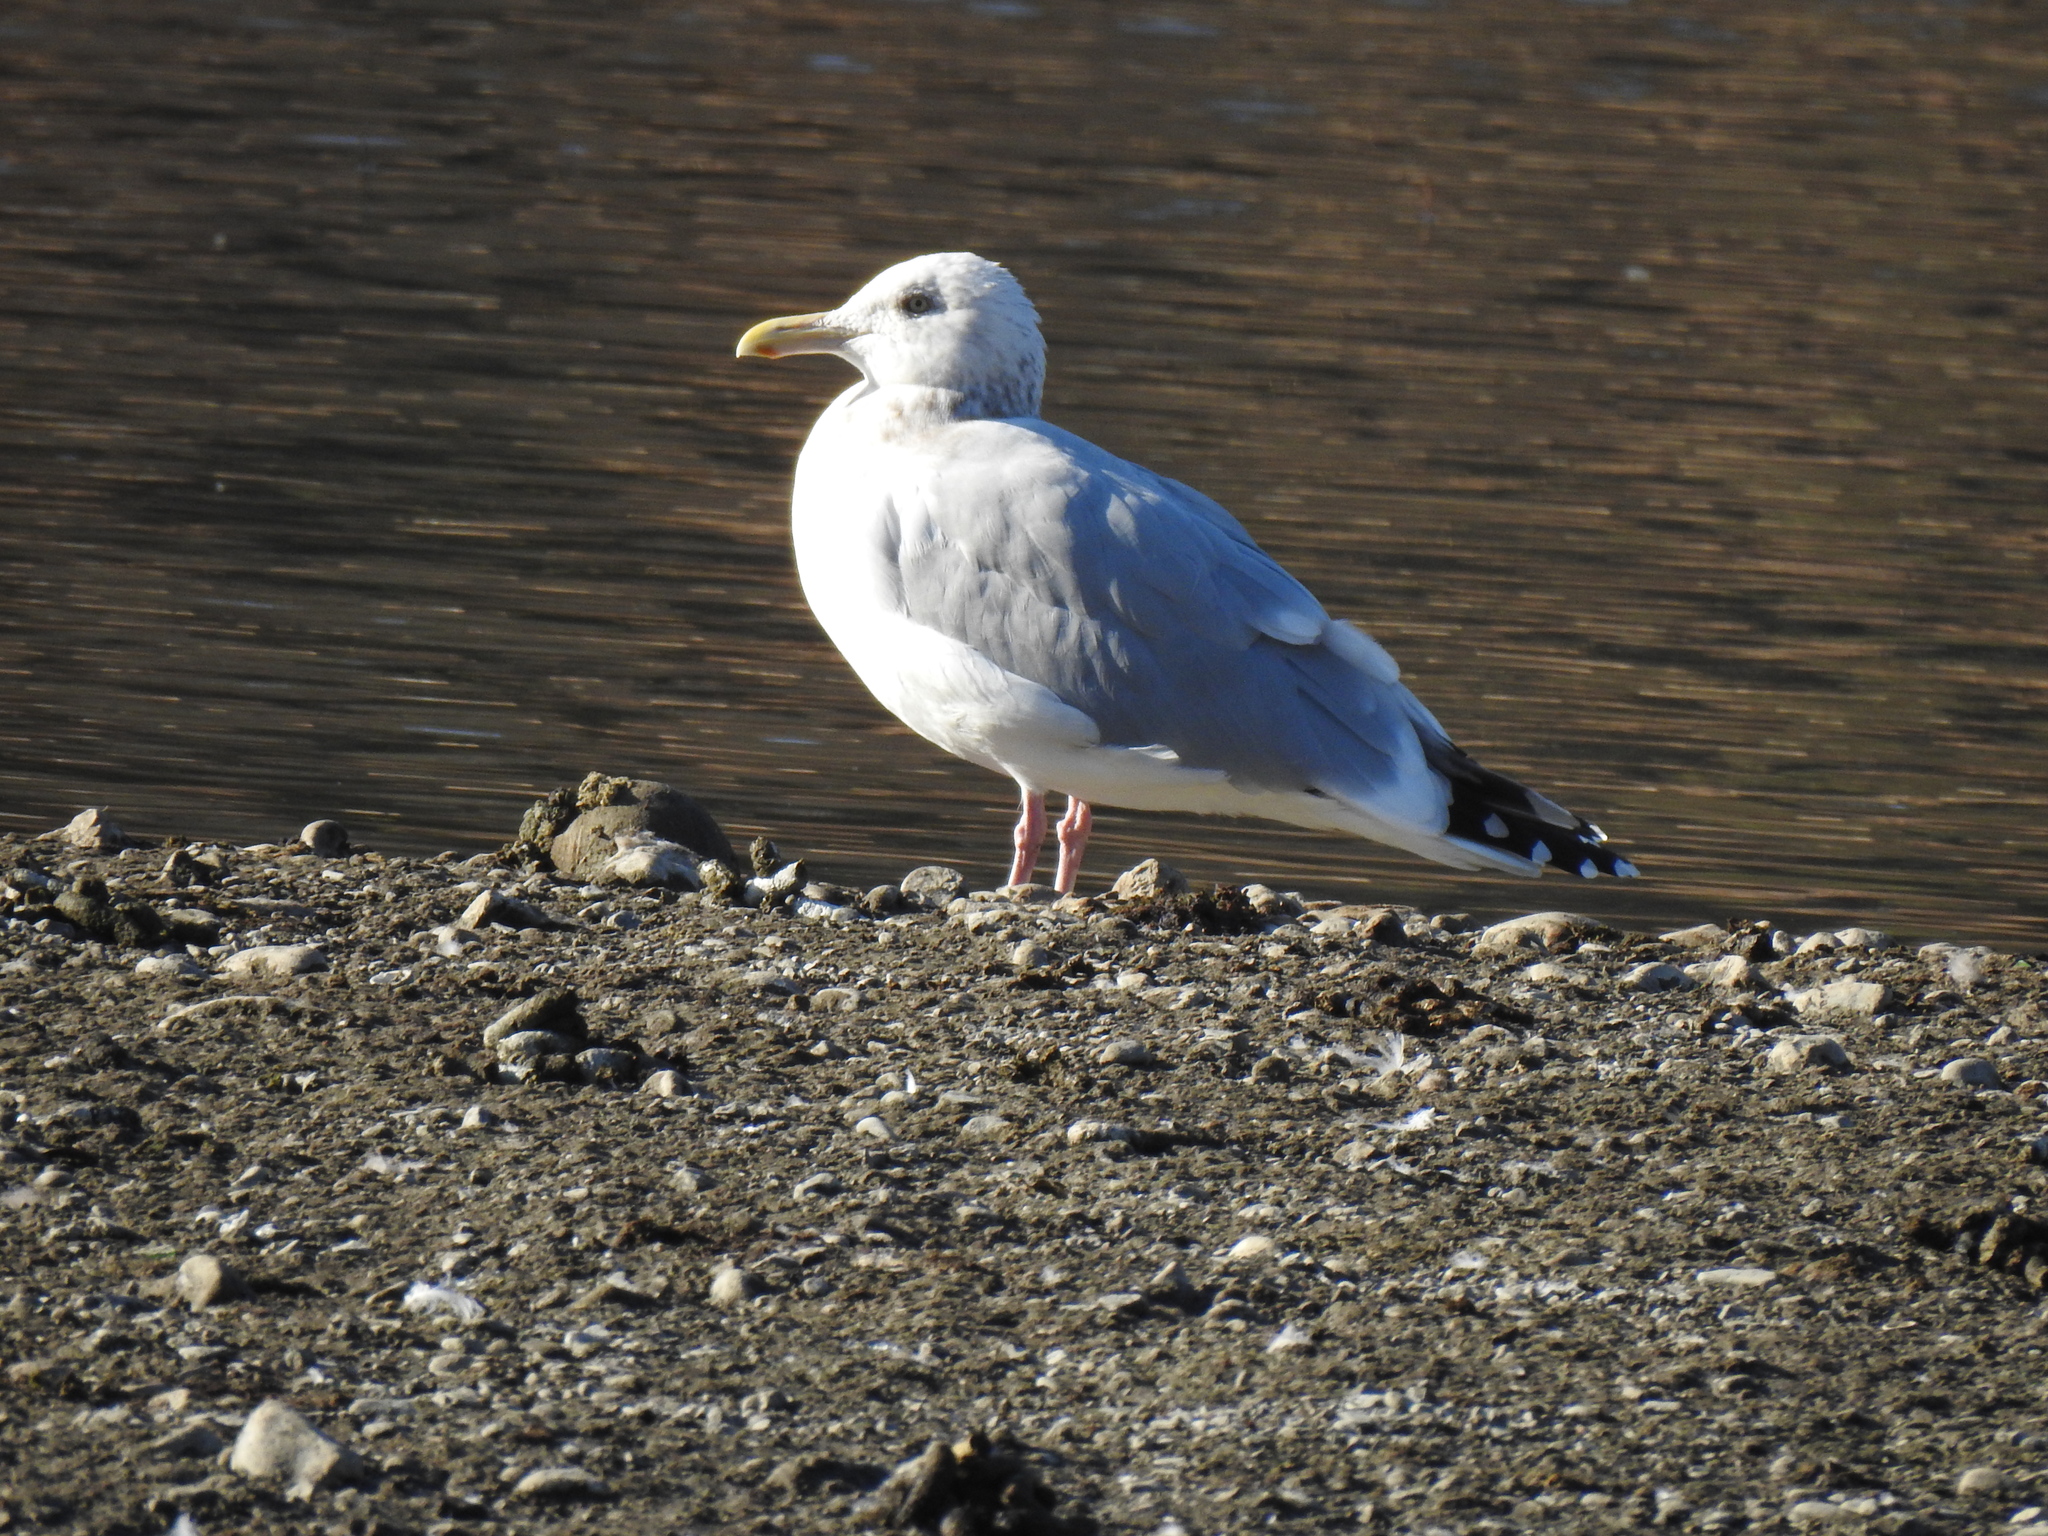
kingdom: Animalia
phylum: Chordata
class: Aves
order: Charadriiformes
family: Laridae
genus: Larus
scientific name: Larus argentatus
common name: Herring gull
